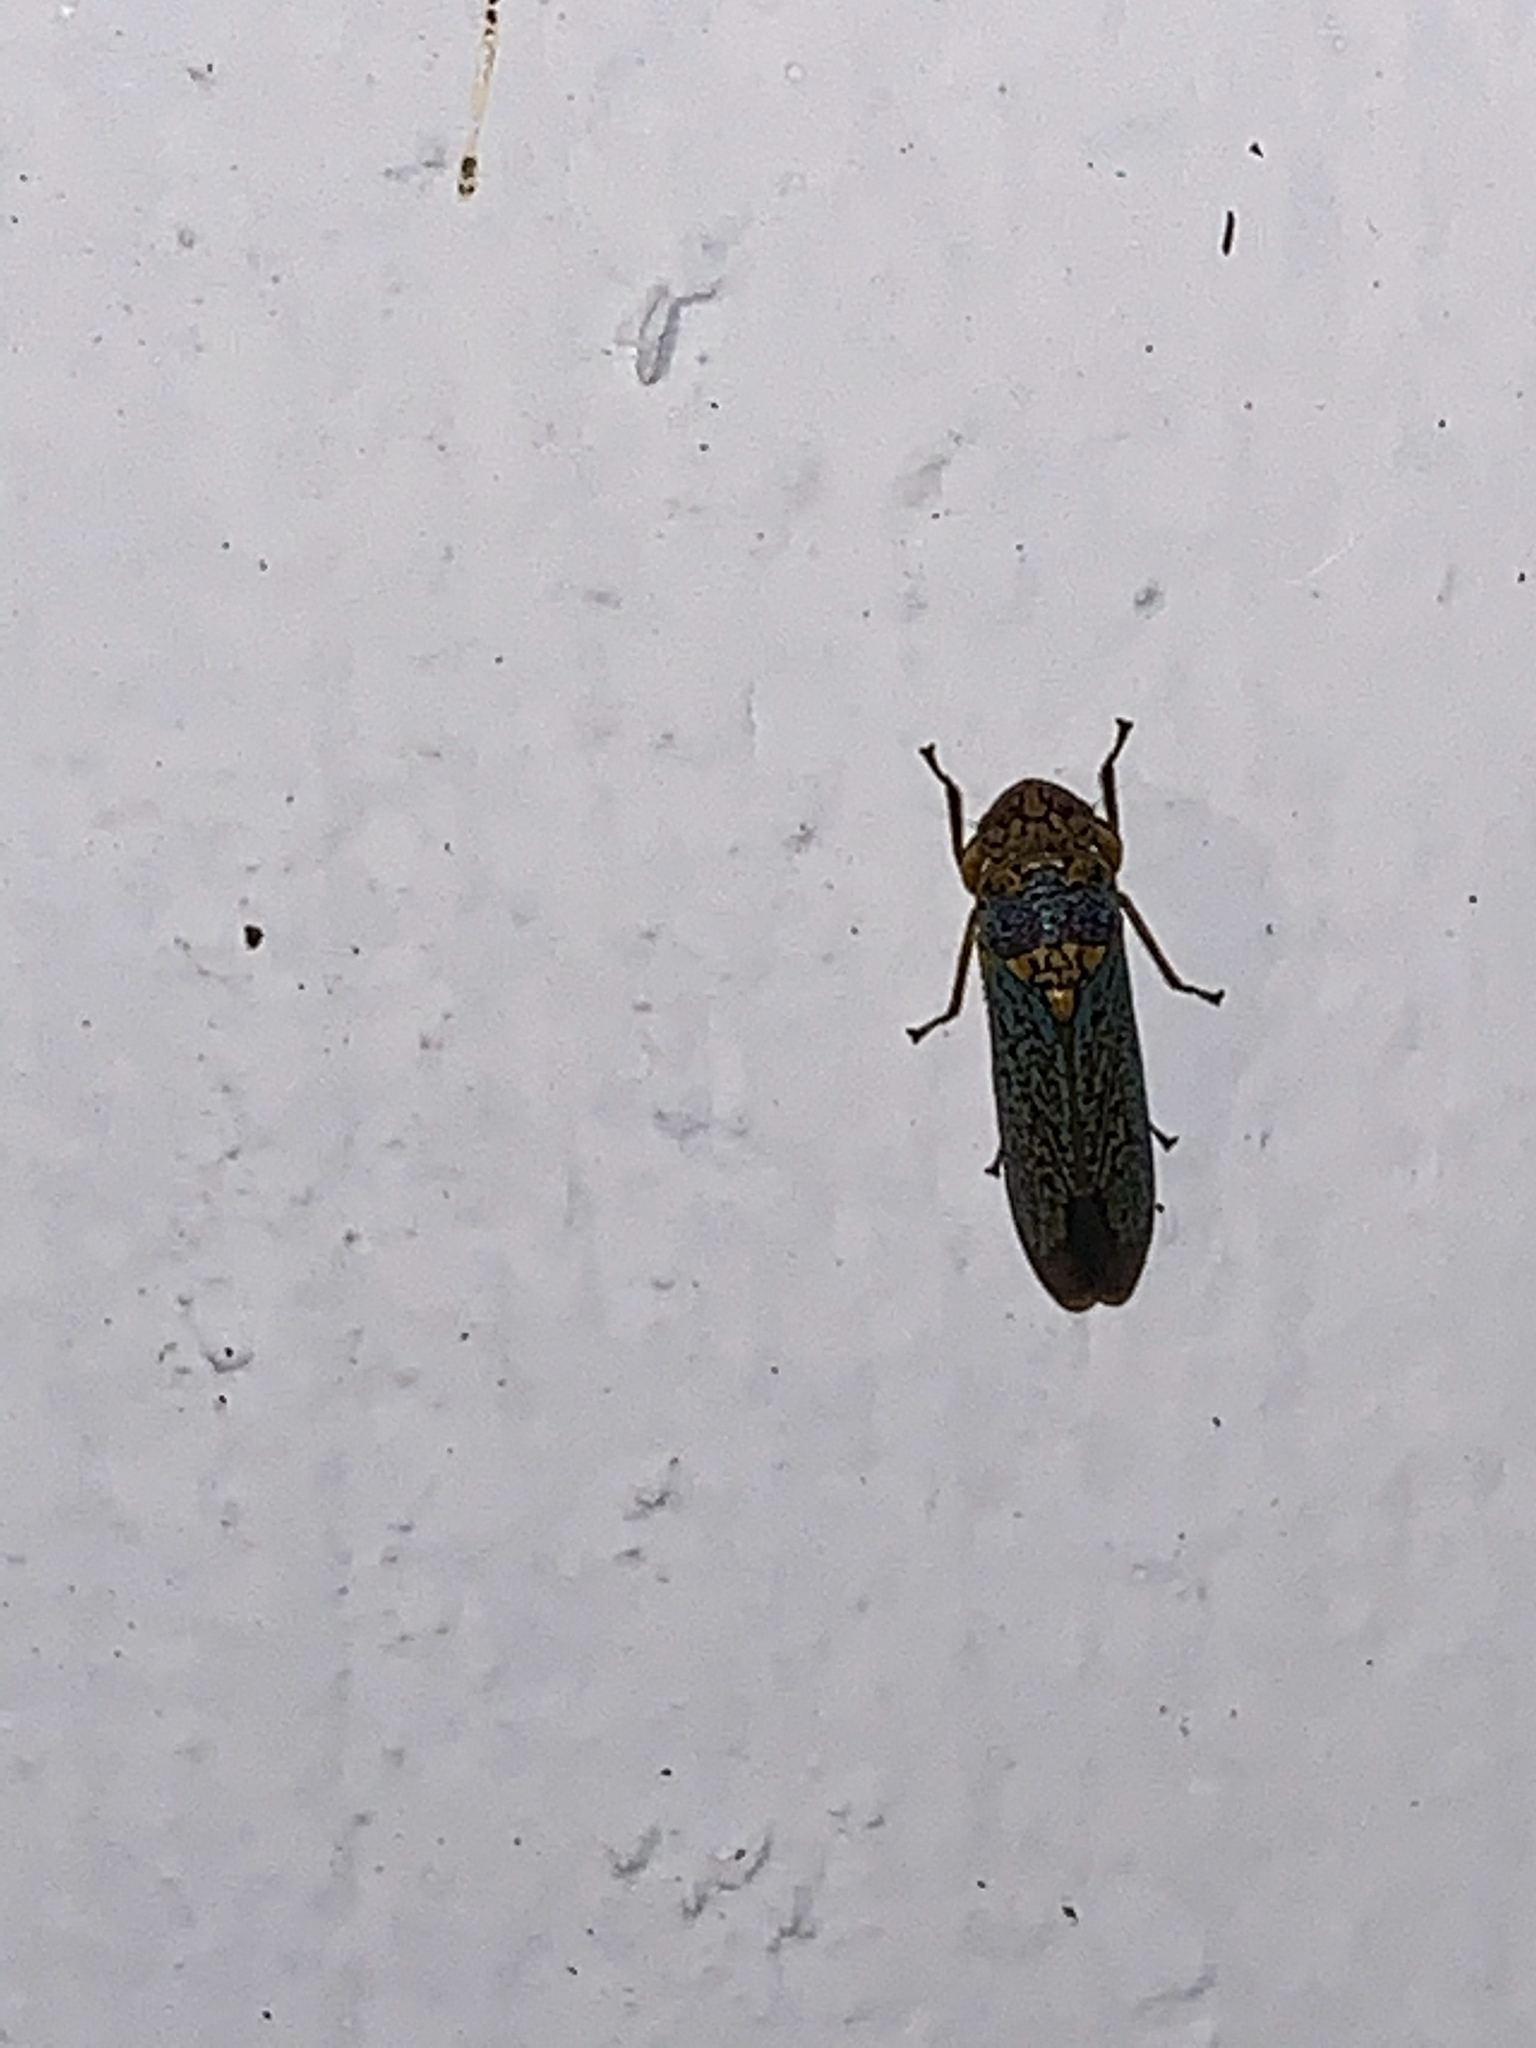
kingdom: Animalia
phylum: Arthropoda
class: Insecta
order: Hemiptera
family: Cicadellidae
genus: Oncometopia
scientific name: Oncometopia orbona
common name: Broad-headed sharpshooter
